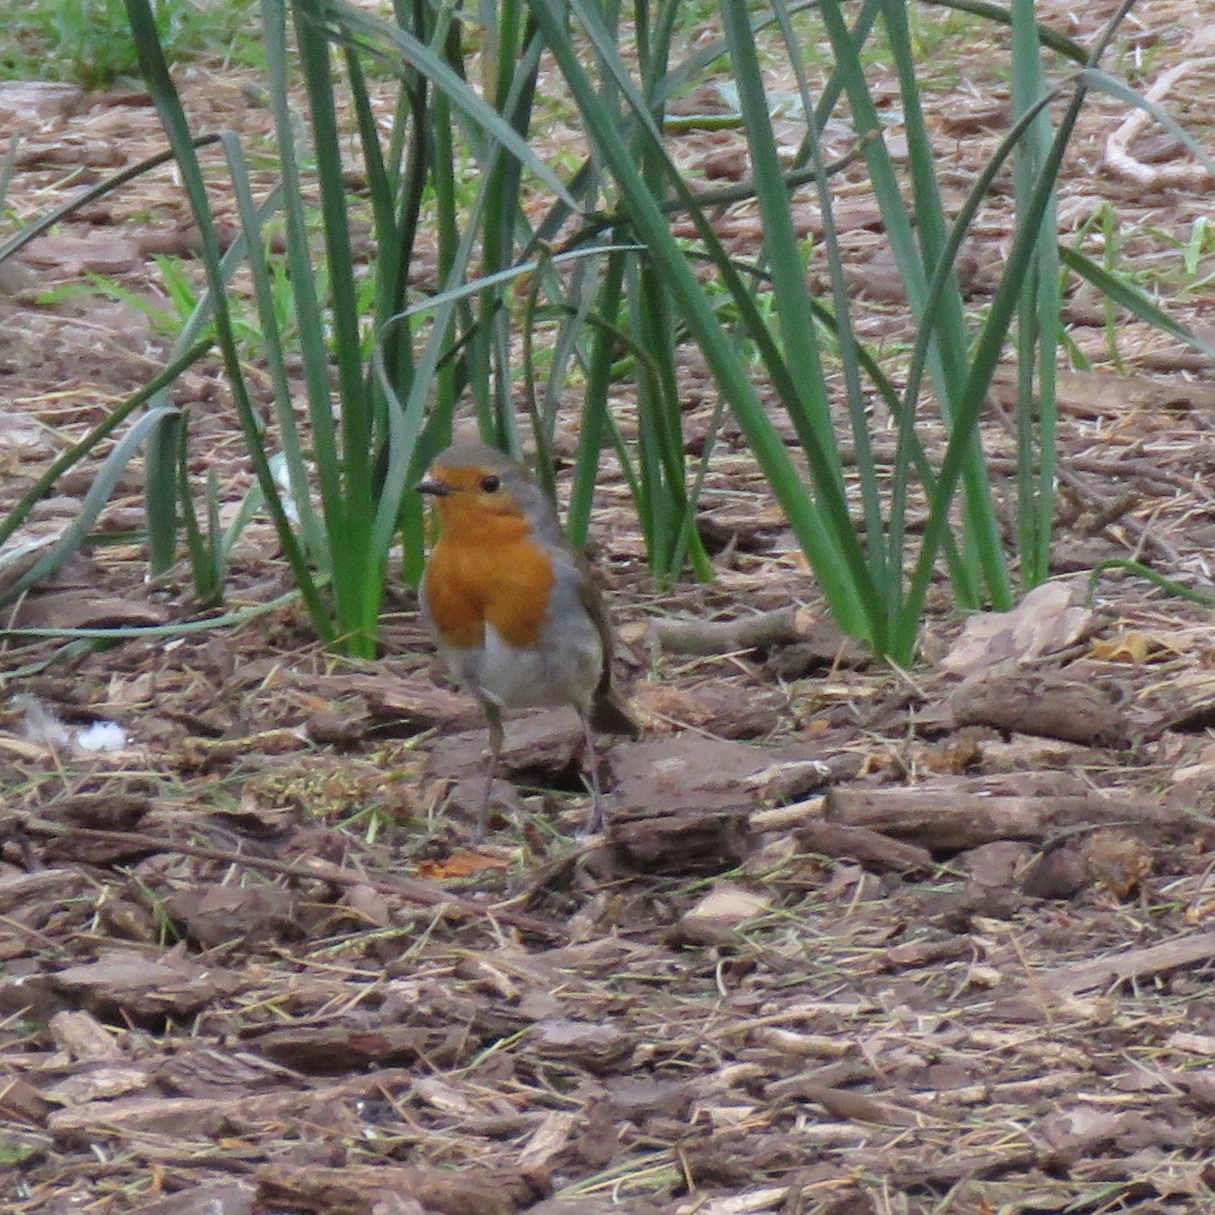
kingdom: Animalia
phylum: Chordata
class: Aves
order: Passeriformes
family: Muscicapidae
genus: Erithacus
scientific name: Erithacus rubecula
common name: European robin
